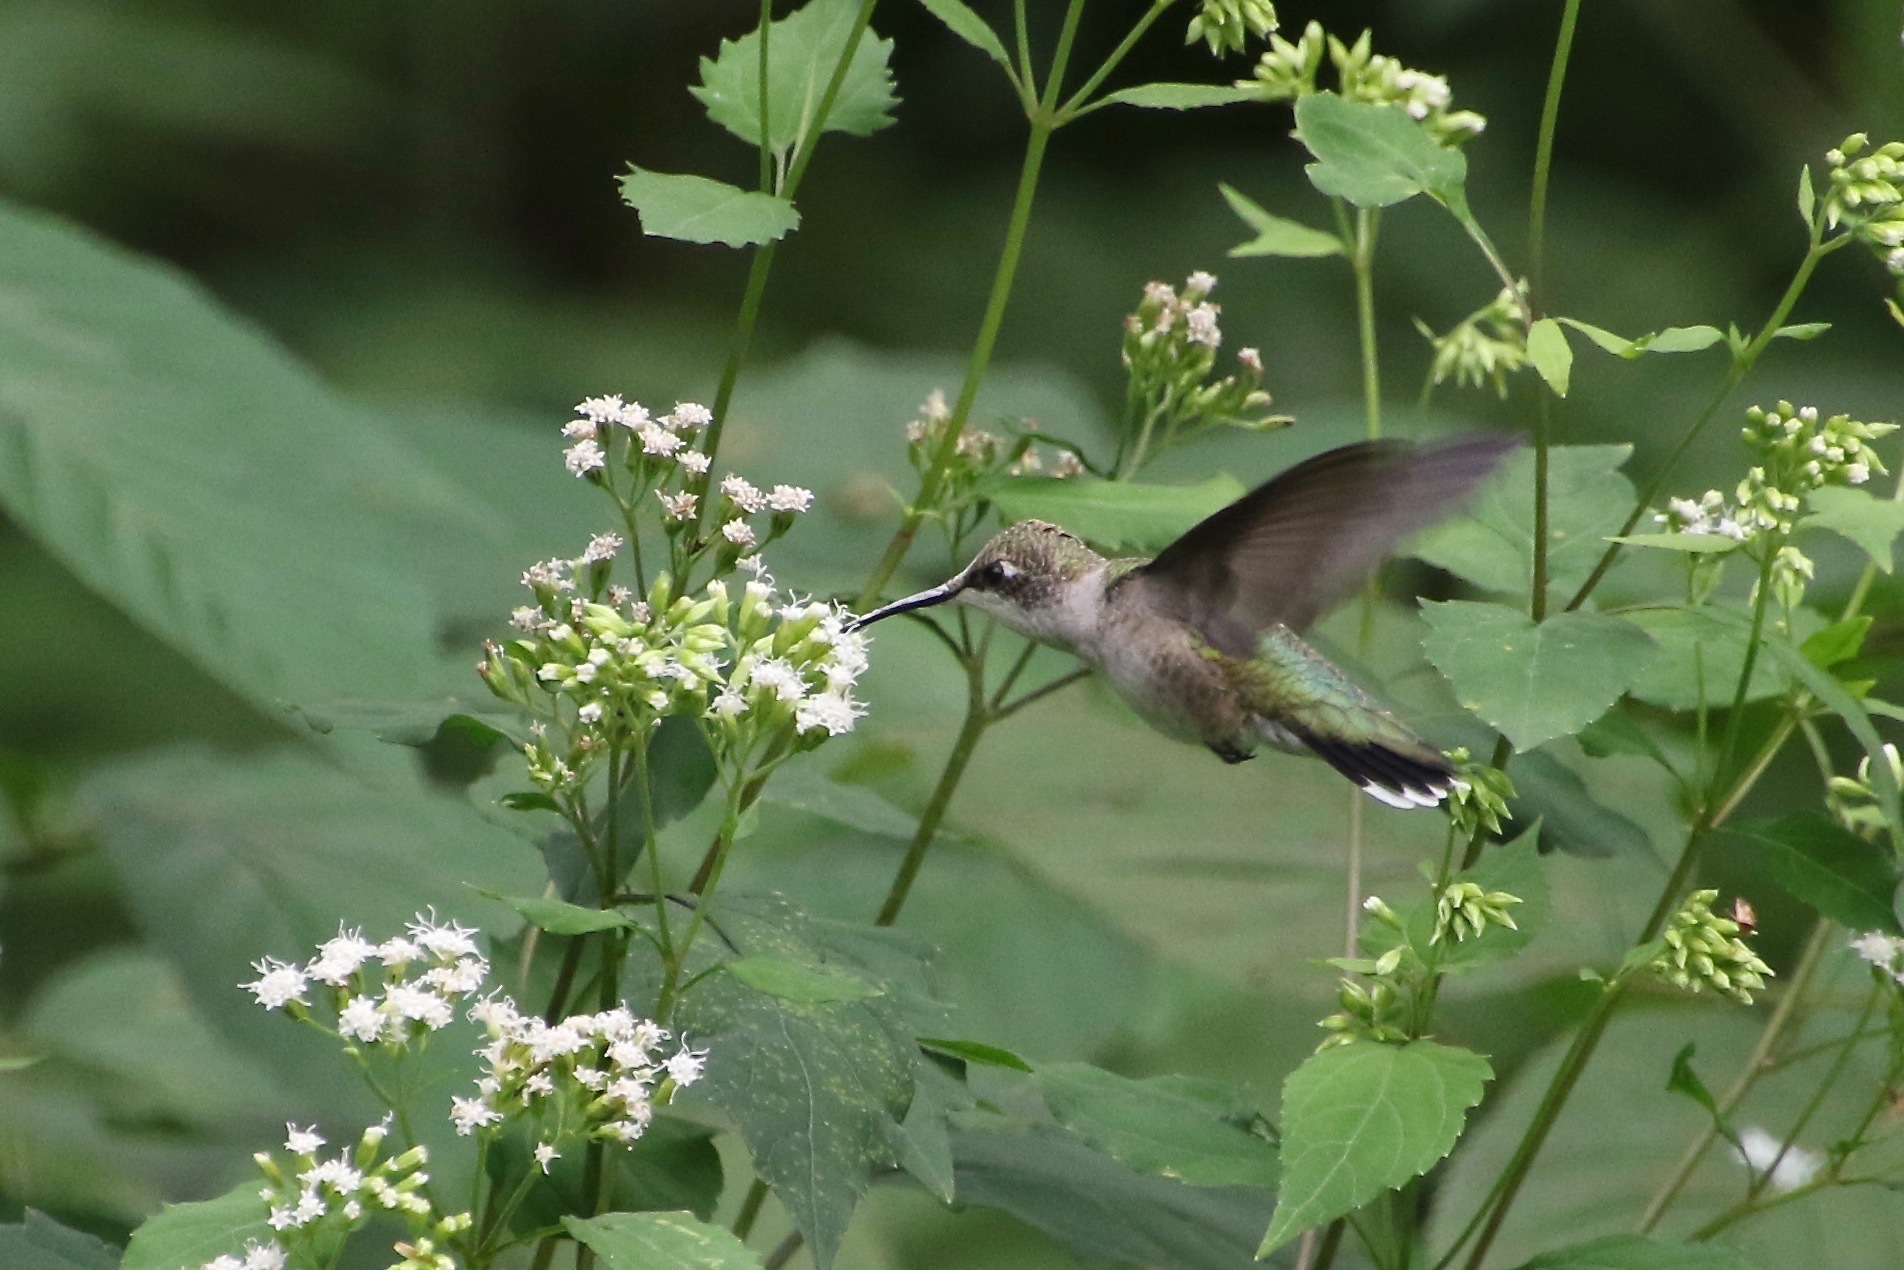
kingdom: Animalia
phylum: Chordata
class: Aves
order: Apodiformes
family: Trochilidae
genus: Archilochus
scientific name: Archilochus colubris
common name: Ruby-throated hummingbird
